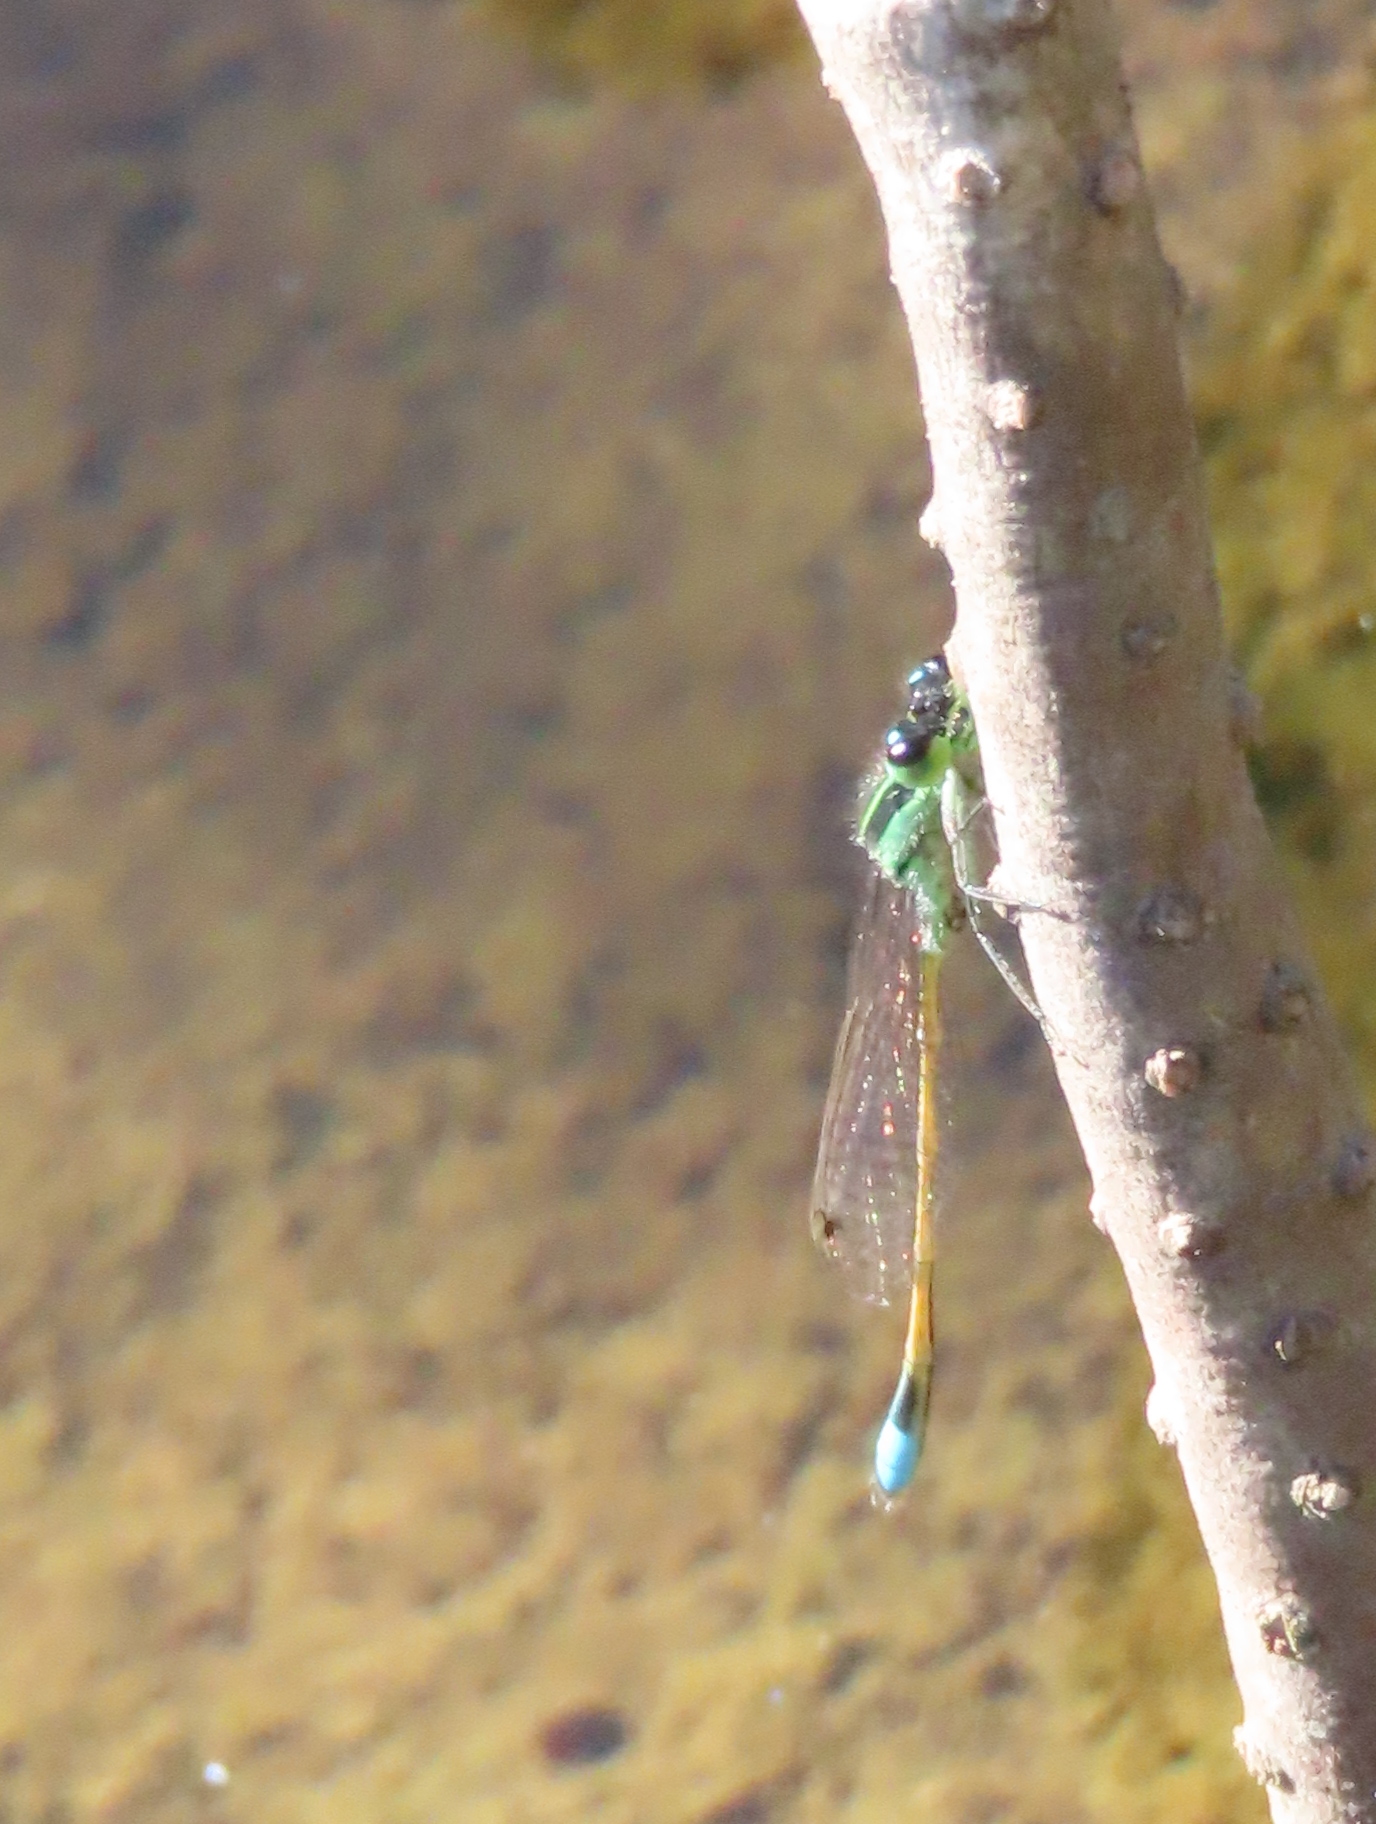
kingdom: Animalia
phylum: Arthropoda
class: Insecta
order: Odonata
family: Coenagrionidae
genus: Ischnura
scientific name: Ischnura ramburii
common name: Rambur's forktail
